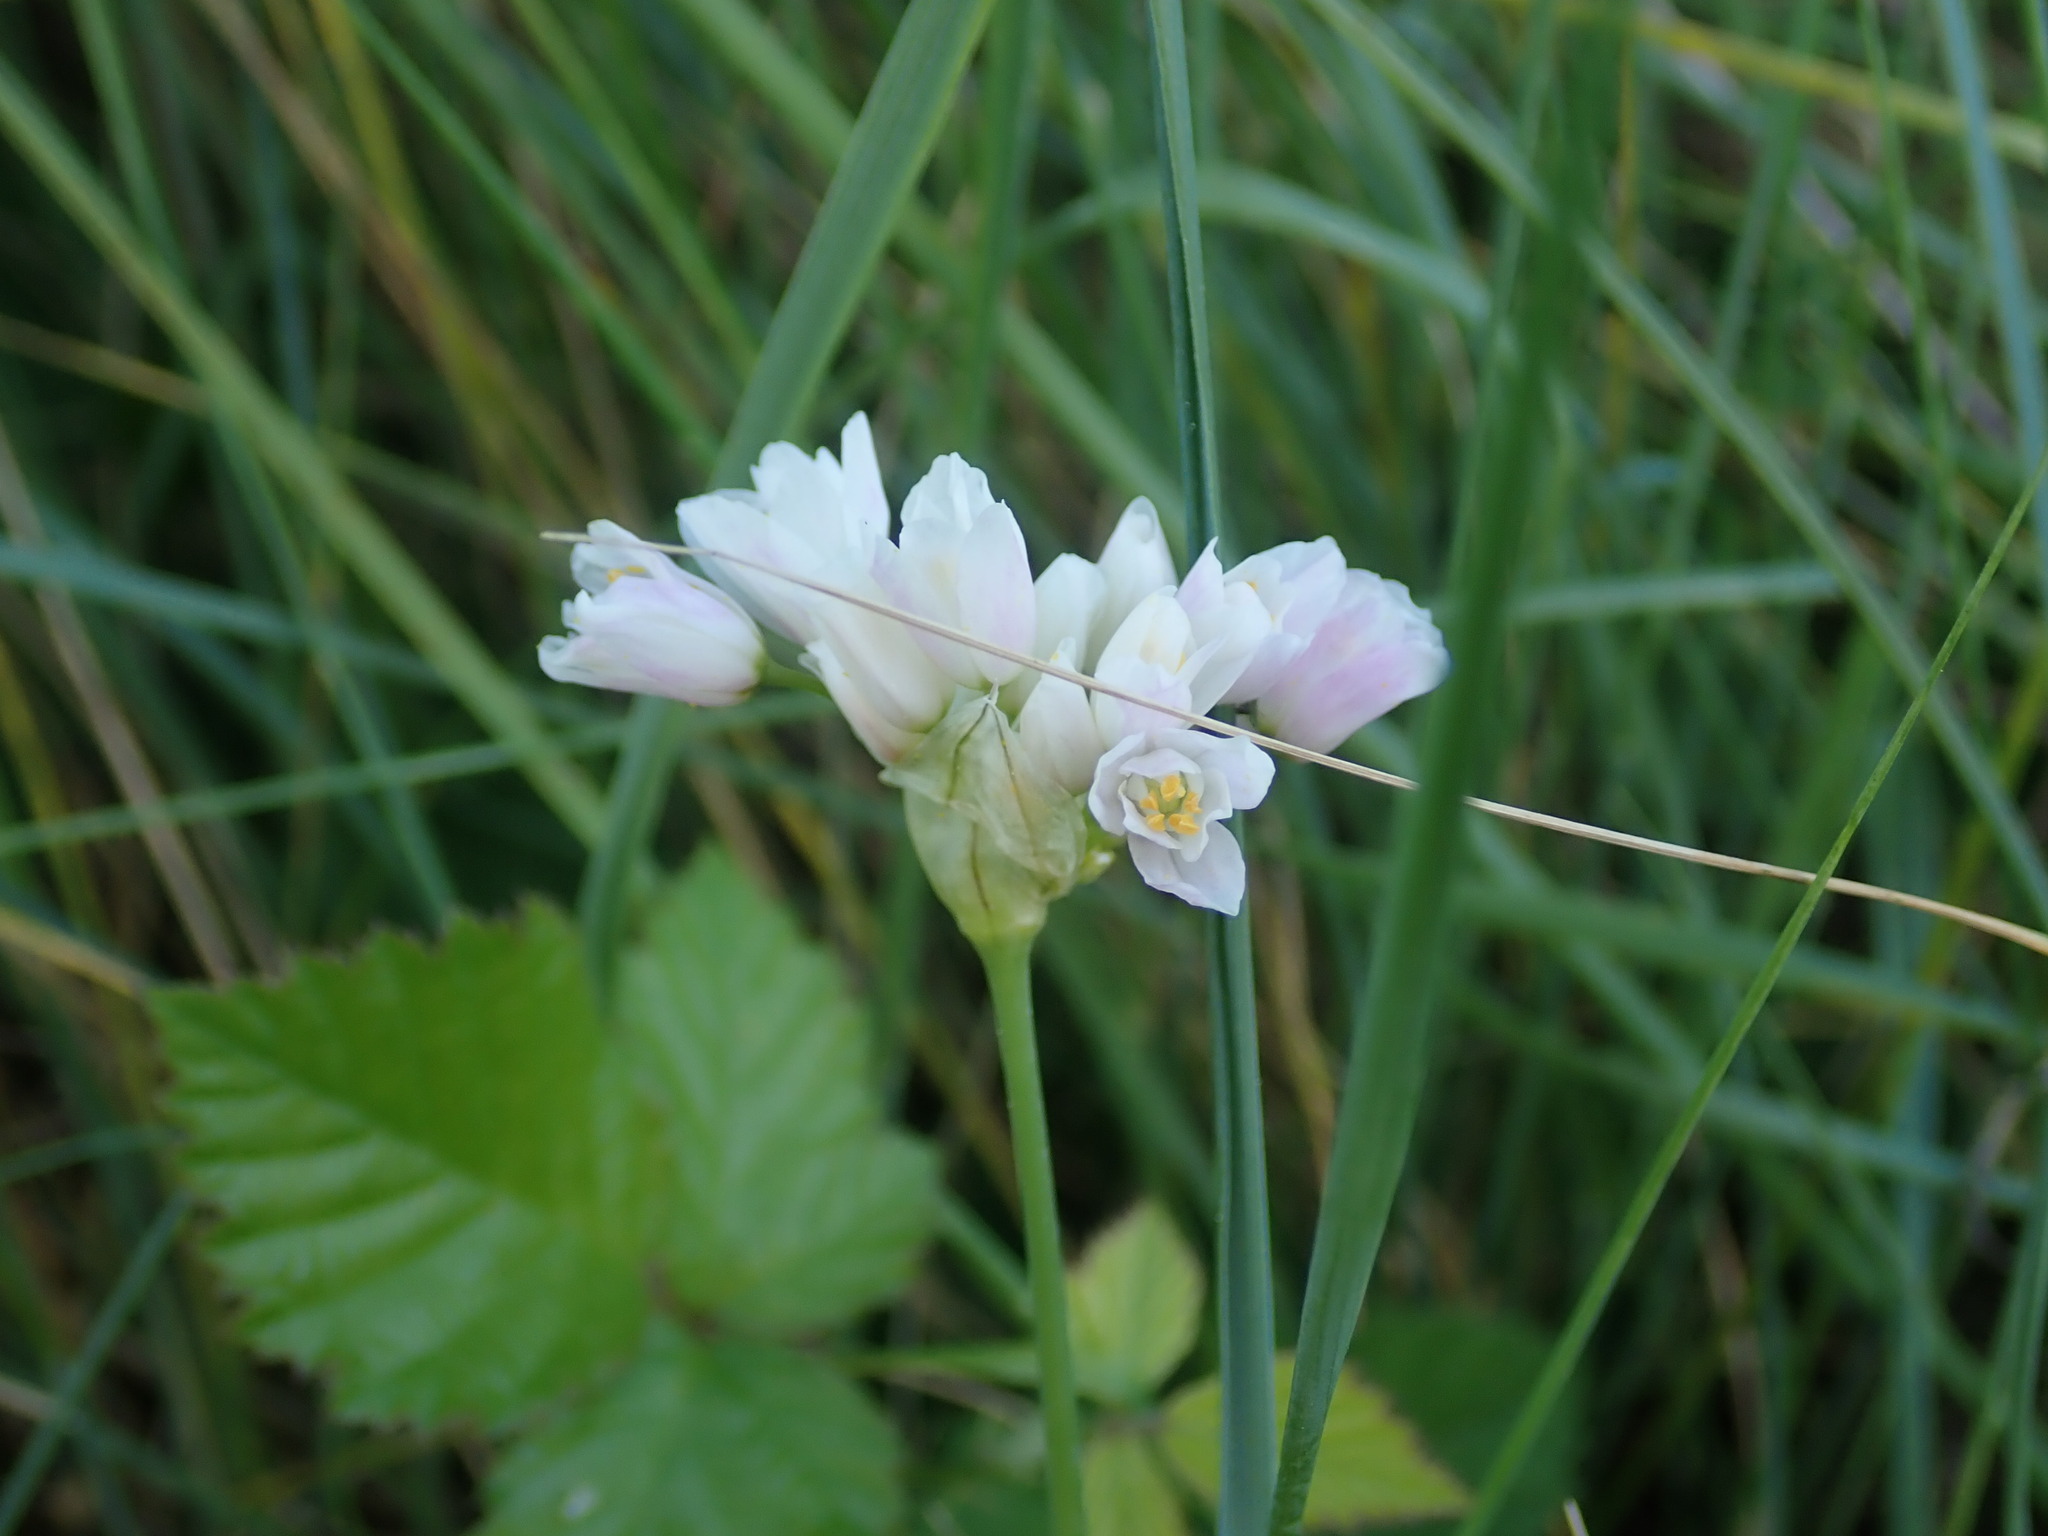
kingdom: Plantae
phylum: Tracheophyta
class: Liliopsida
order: Asparagales
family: Amaryllidaceae
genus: Allium
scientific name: Allium roseum
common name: Rosy garlic
